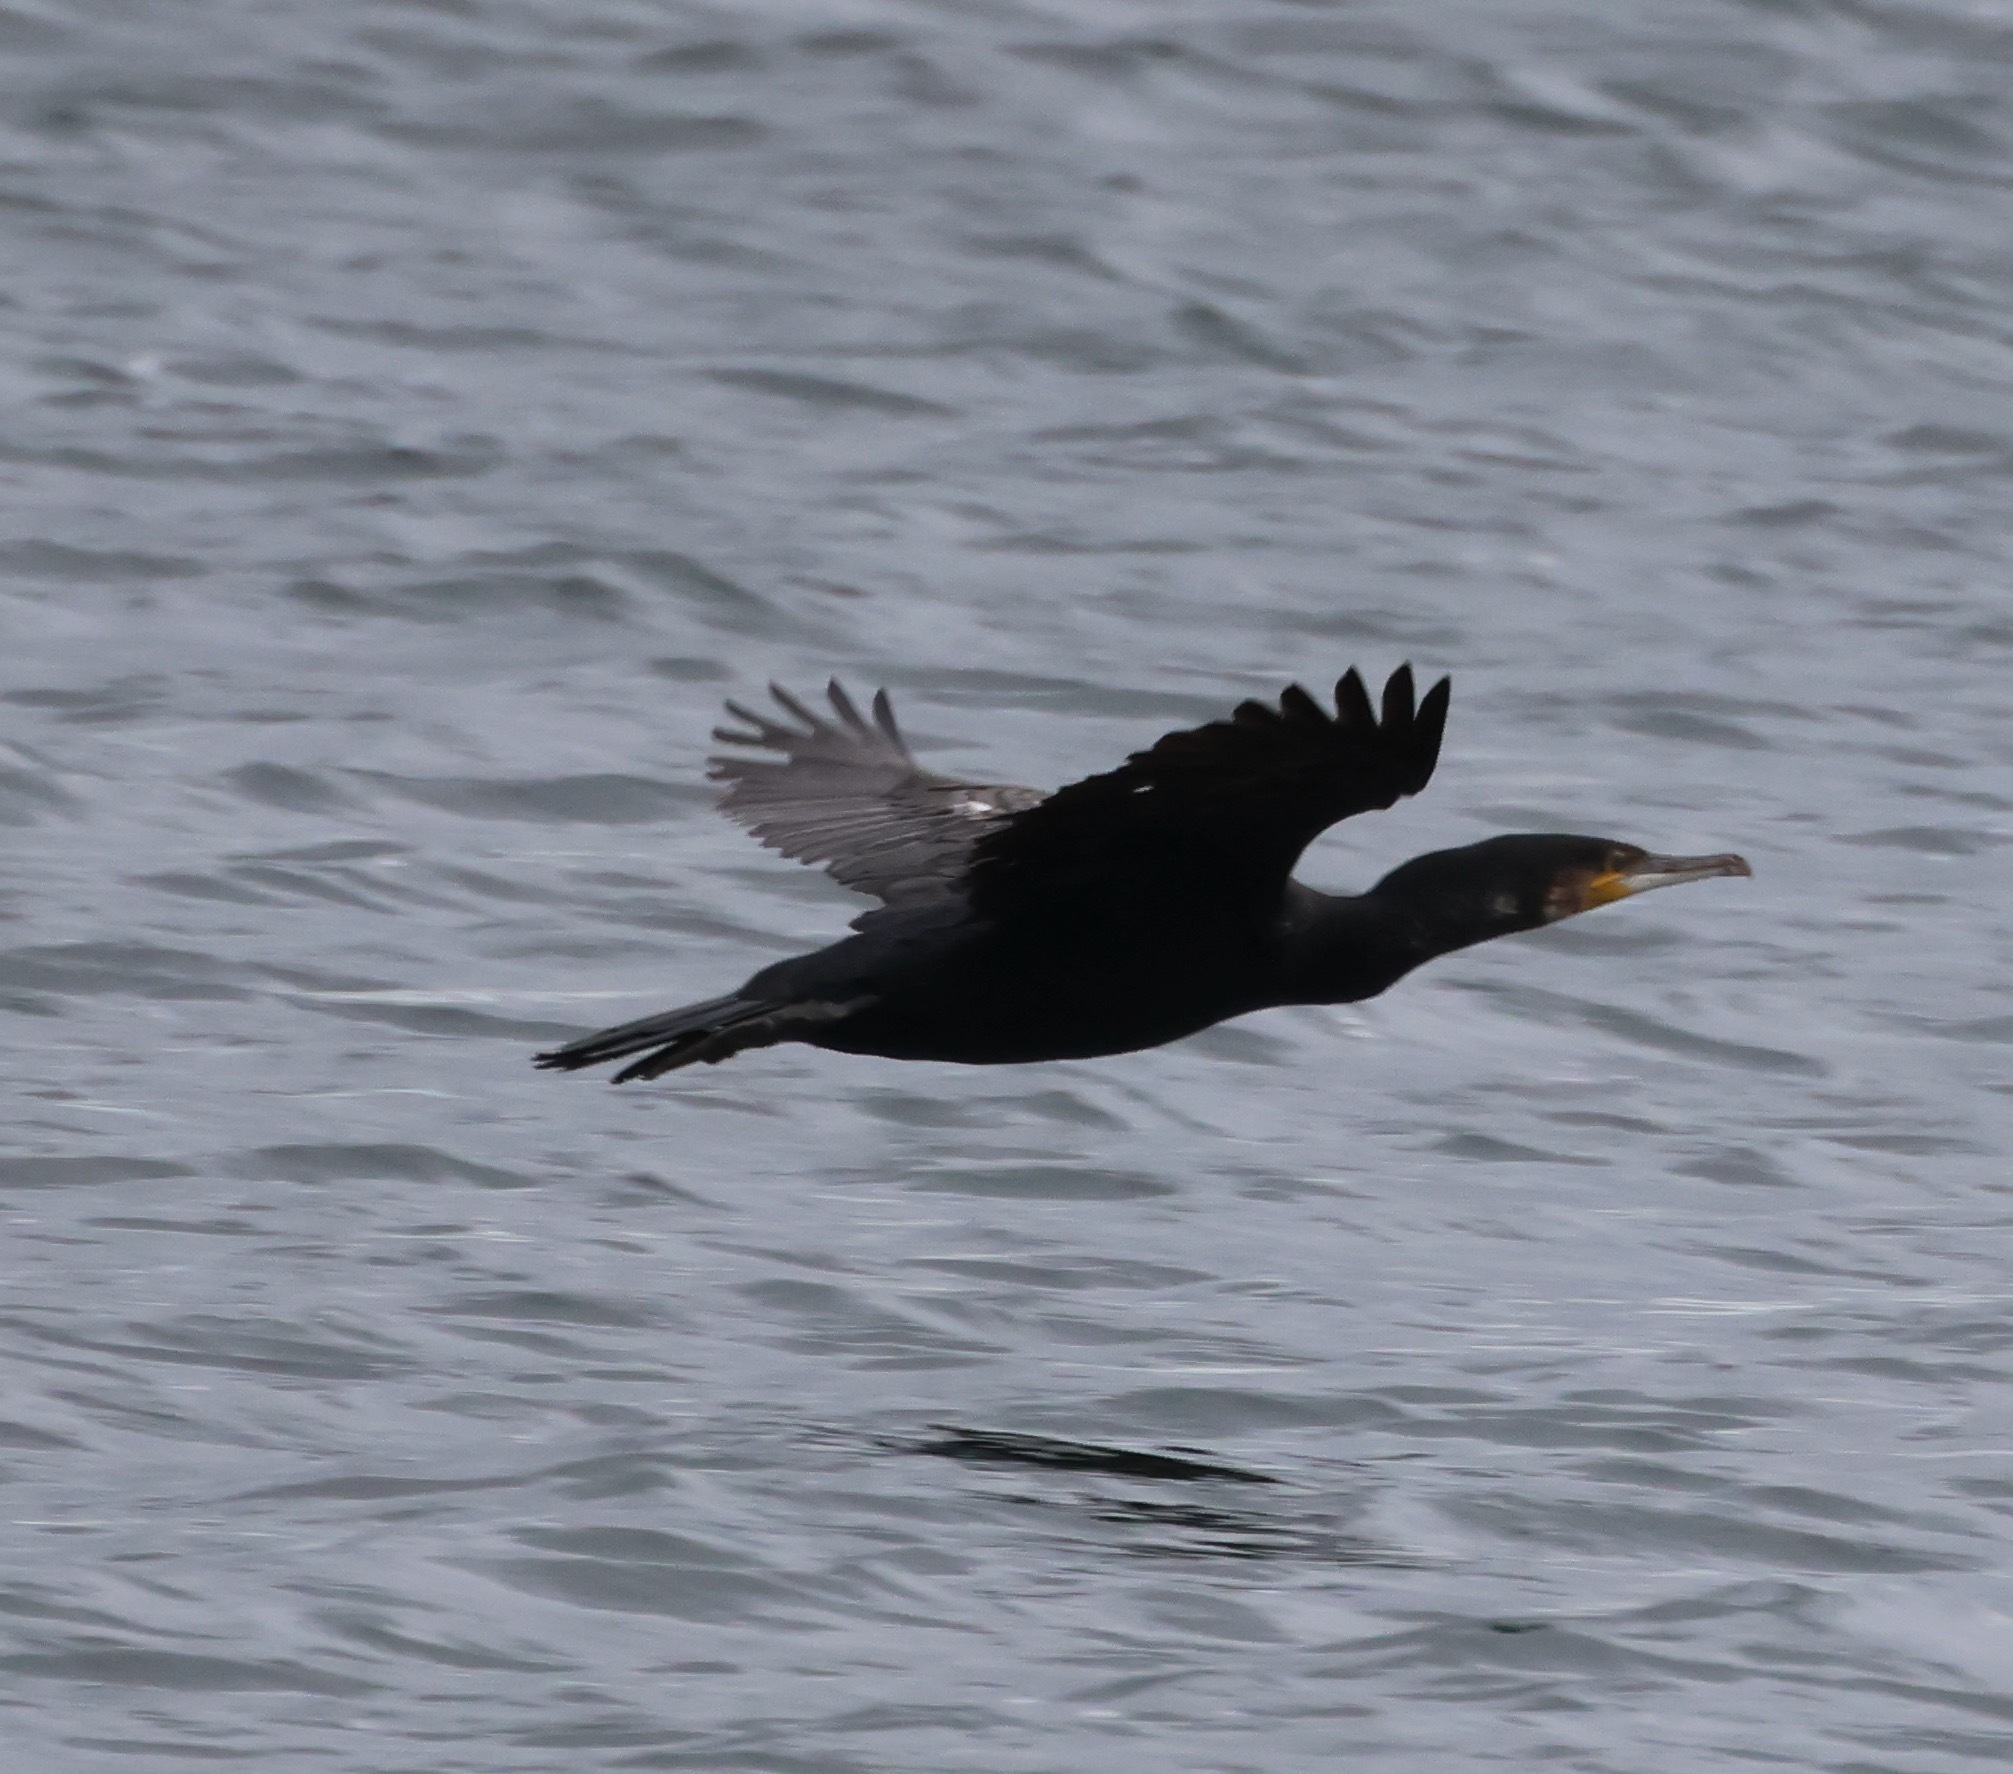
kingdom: Animalia
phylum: Chordata
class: Aves
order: Suliformes
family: Phalacrocoracidae
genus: Phalacrocorax
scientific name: Phalacrocorax carbo
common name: Great cormorant
